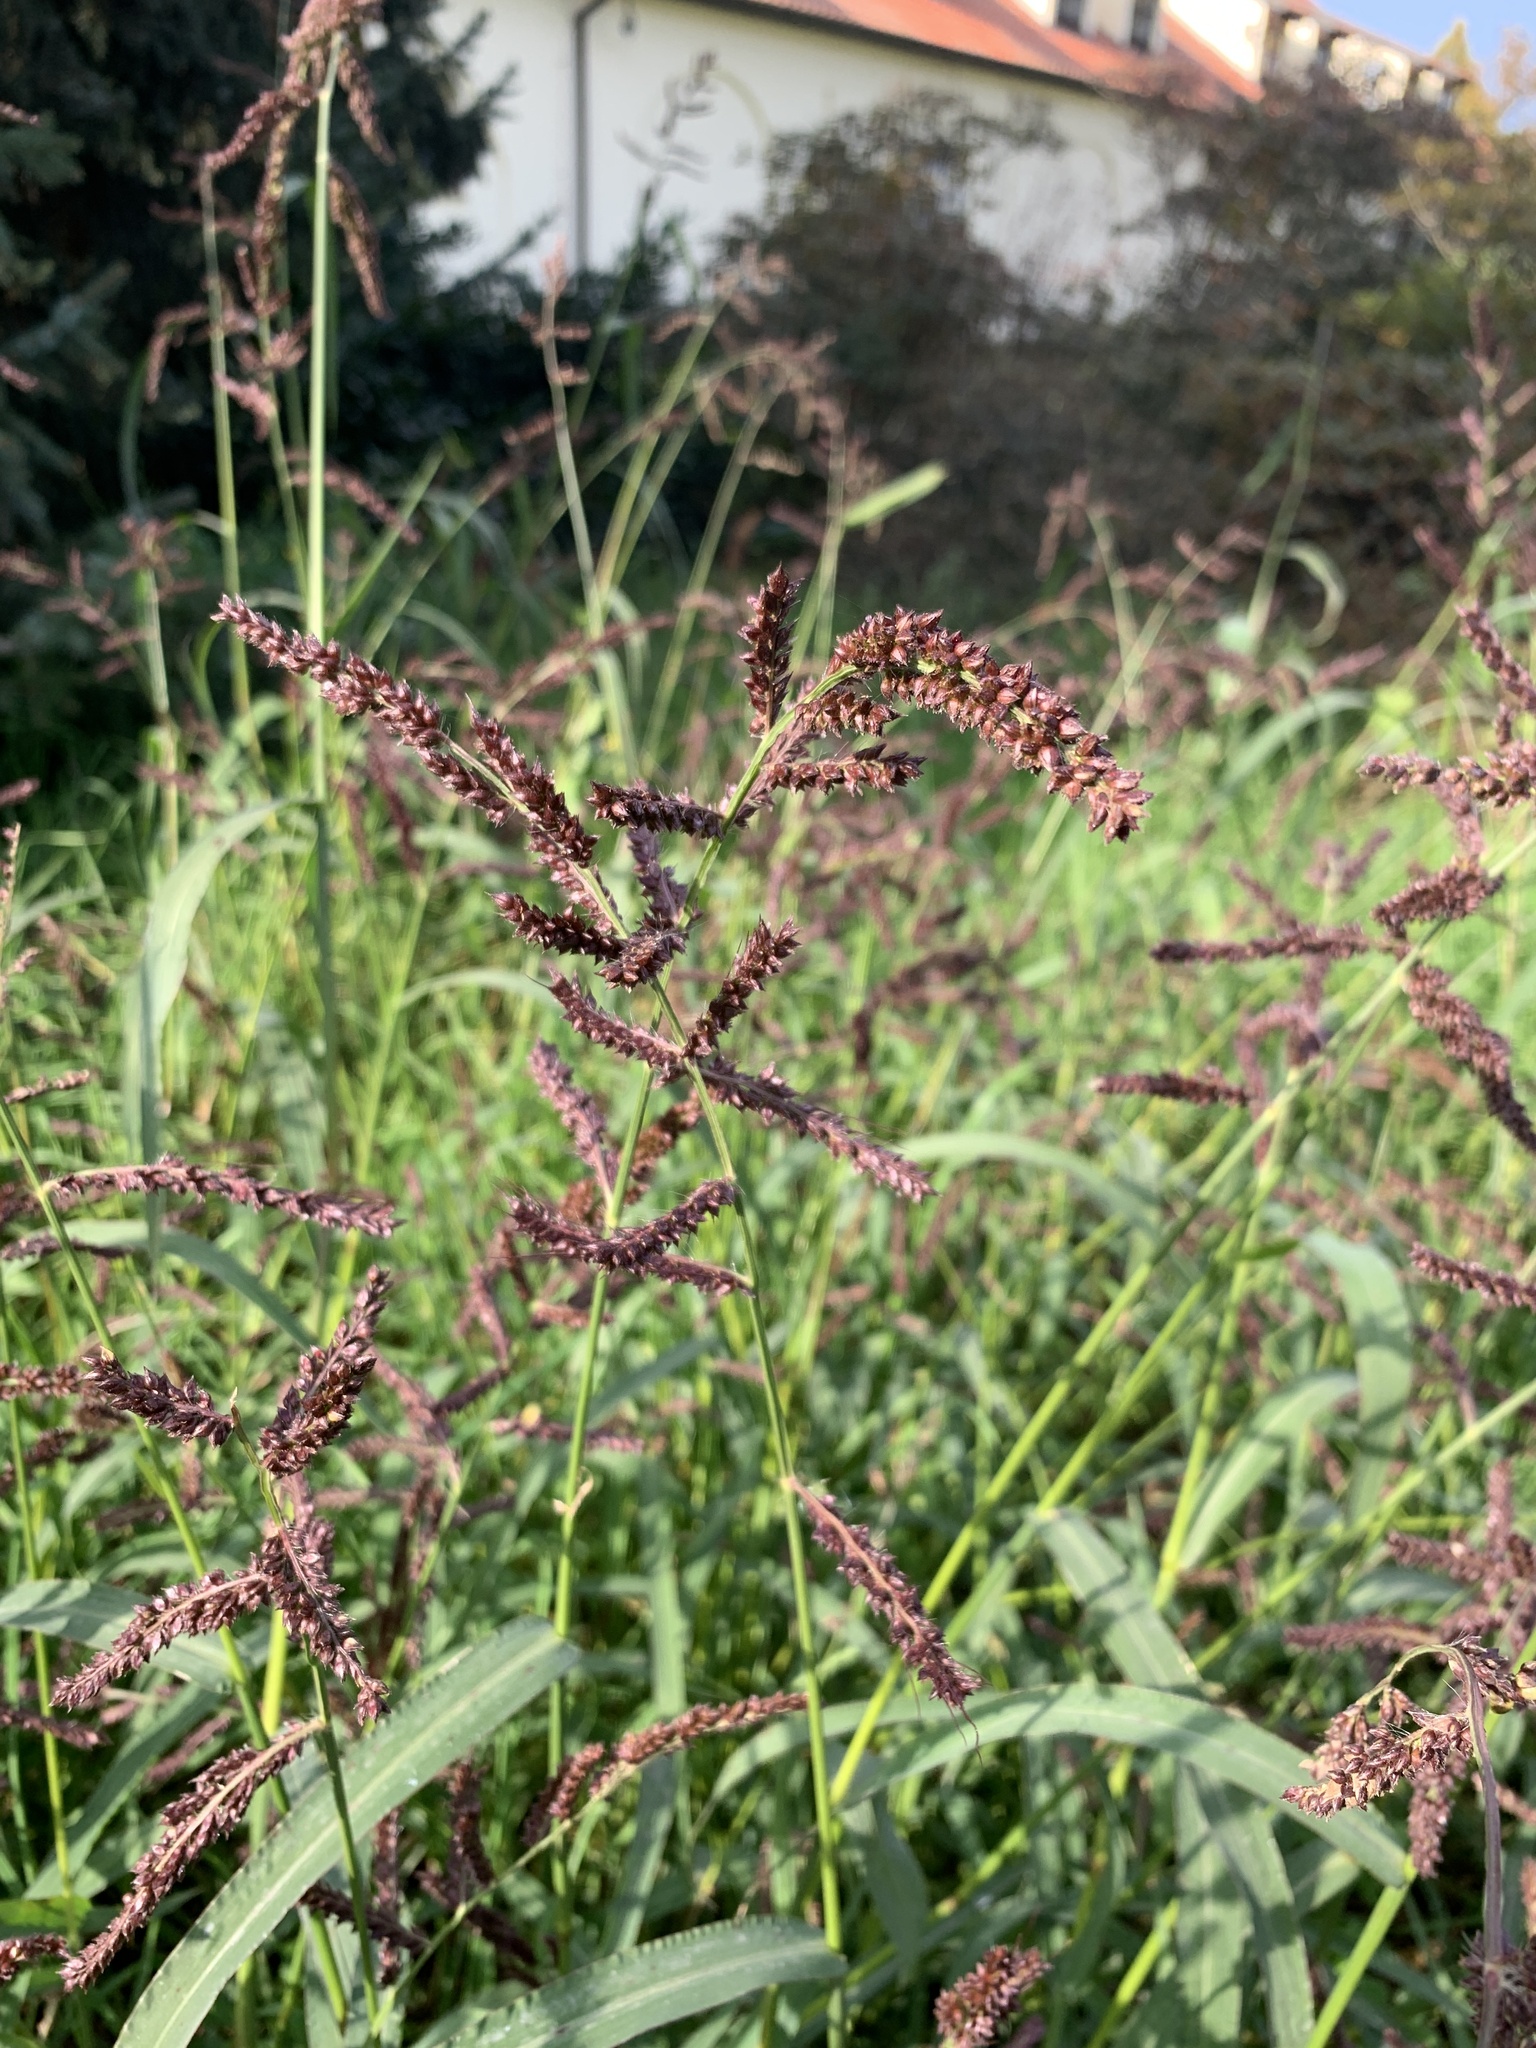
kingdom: Plantae
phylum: Tracheophyta
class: Liliopsida
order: Poales
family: Poaceae
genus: Echinochloa
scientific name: Echinochloa crus-galli
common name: Cockspur
